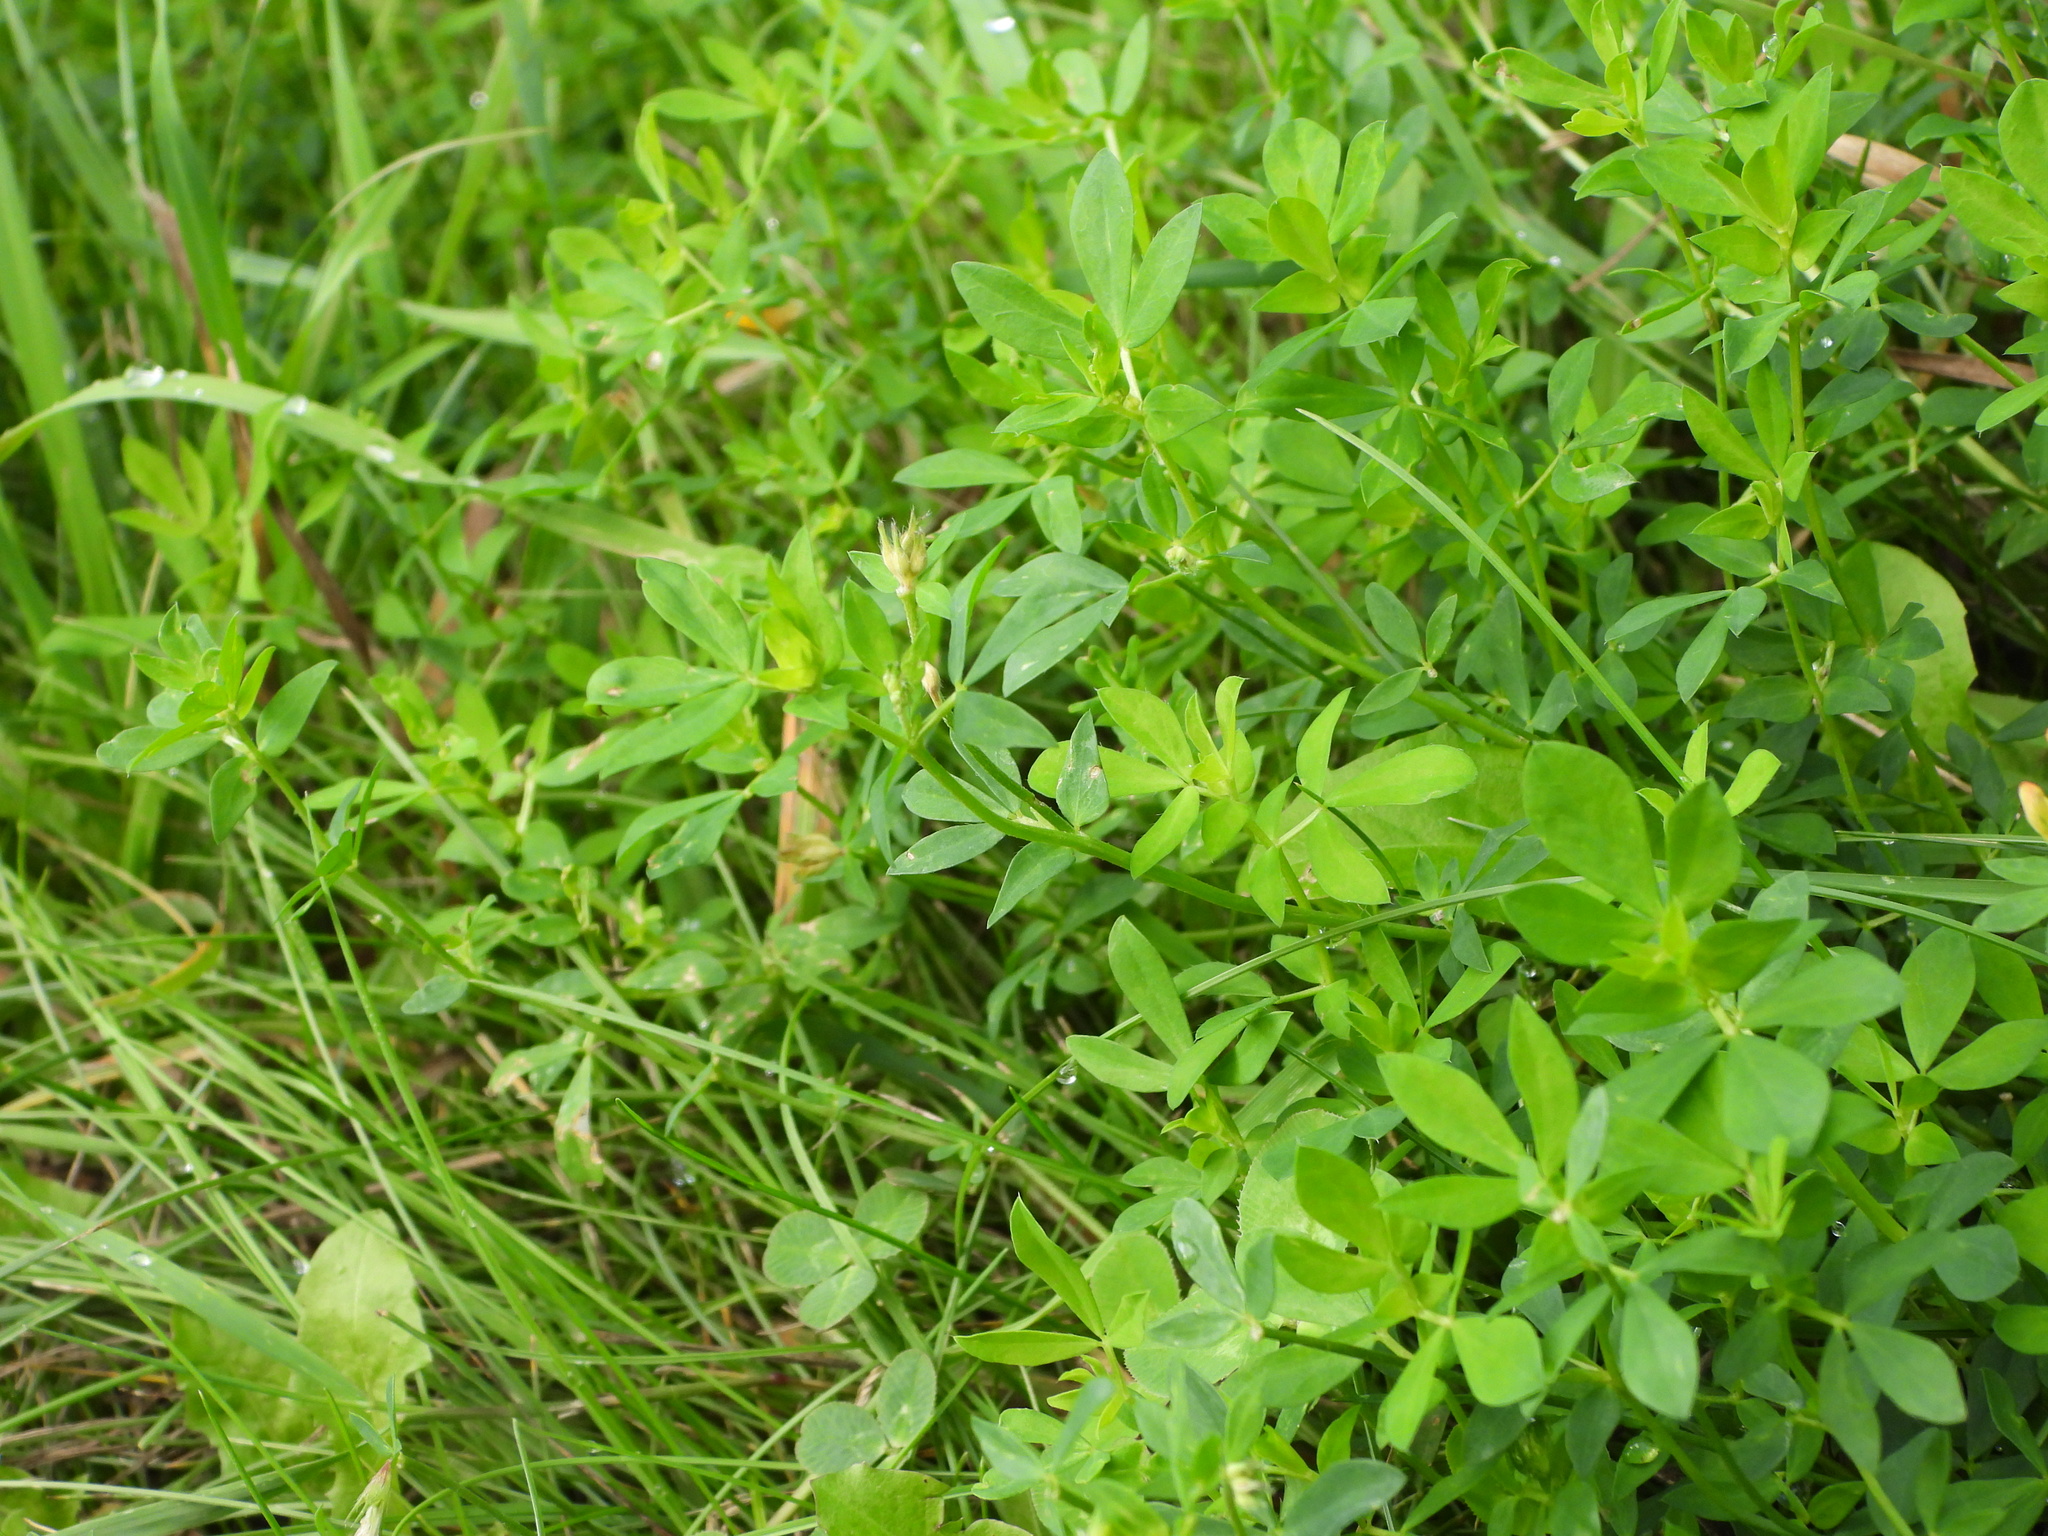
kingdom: Plantae
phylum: Tracheophyta
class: Magnoliopsida
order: Fabales
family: Fabaceae
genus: Lotus
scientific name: Lotus corniculatus
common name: Common bird's-foot-trefoil
